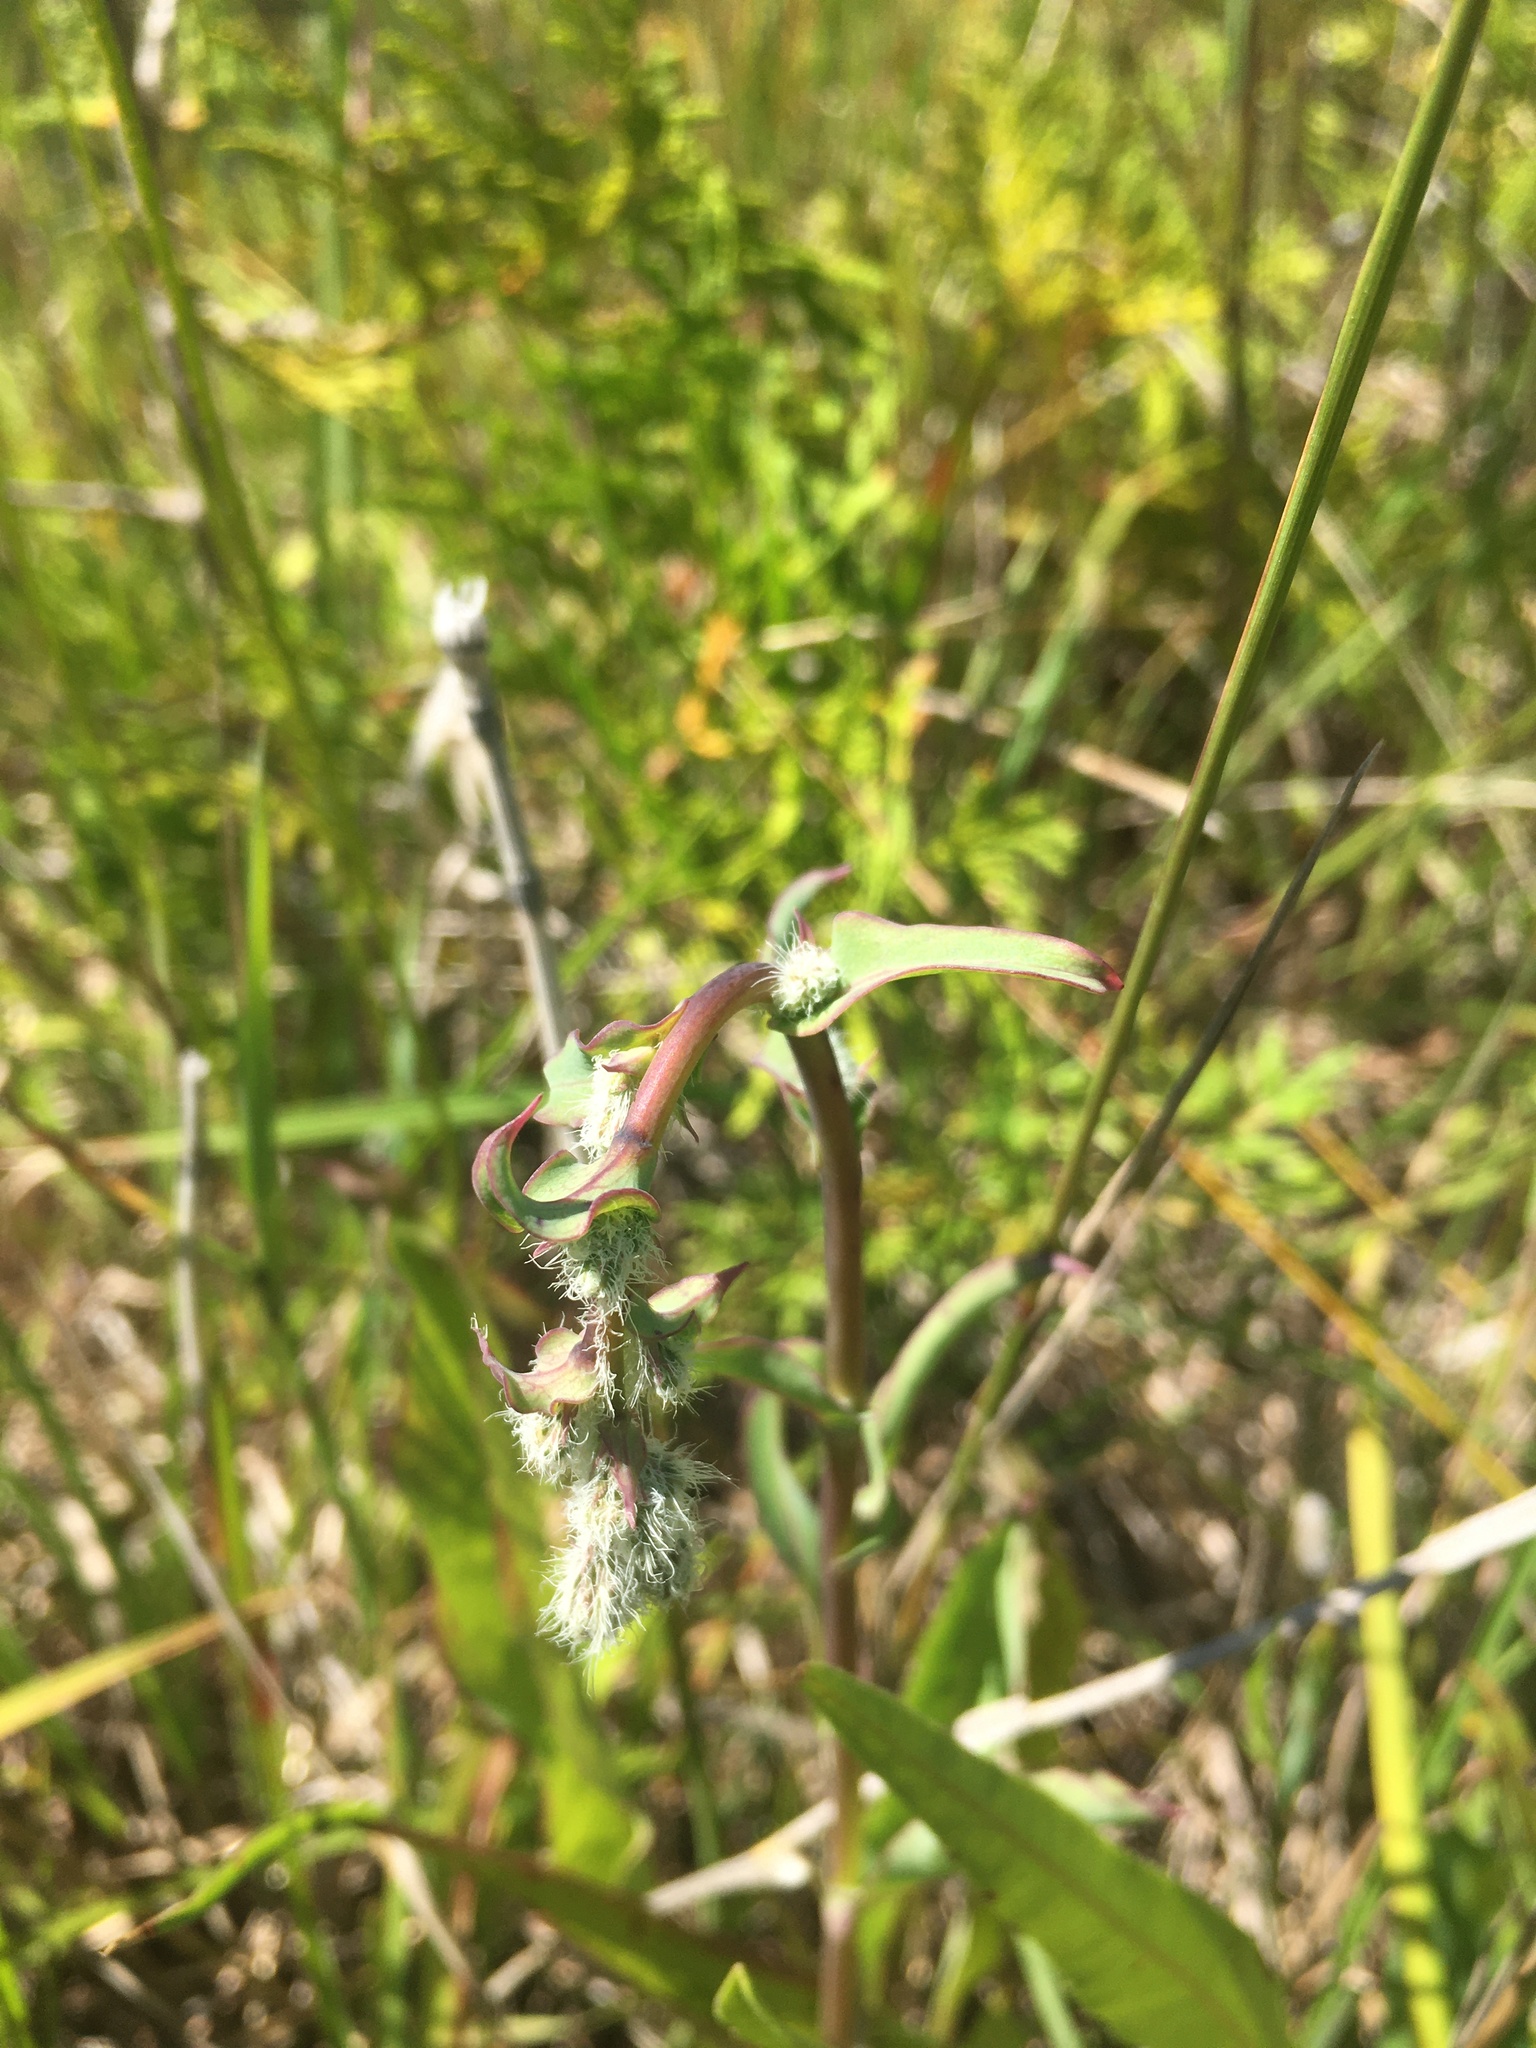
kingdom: Plantae
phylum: Tracheophyta
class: Magnoliopsida
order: Asterales
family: Asteraceae
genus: Nabalus
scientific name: Nabalus racemosus
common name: Glaucous white lettuce
